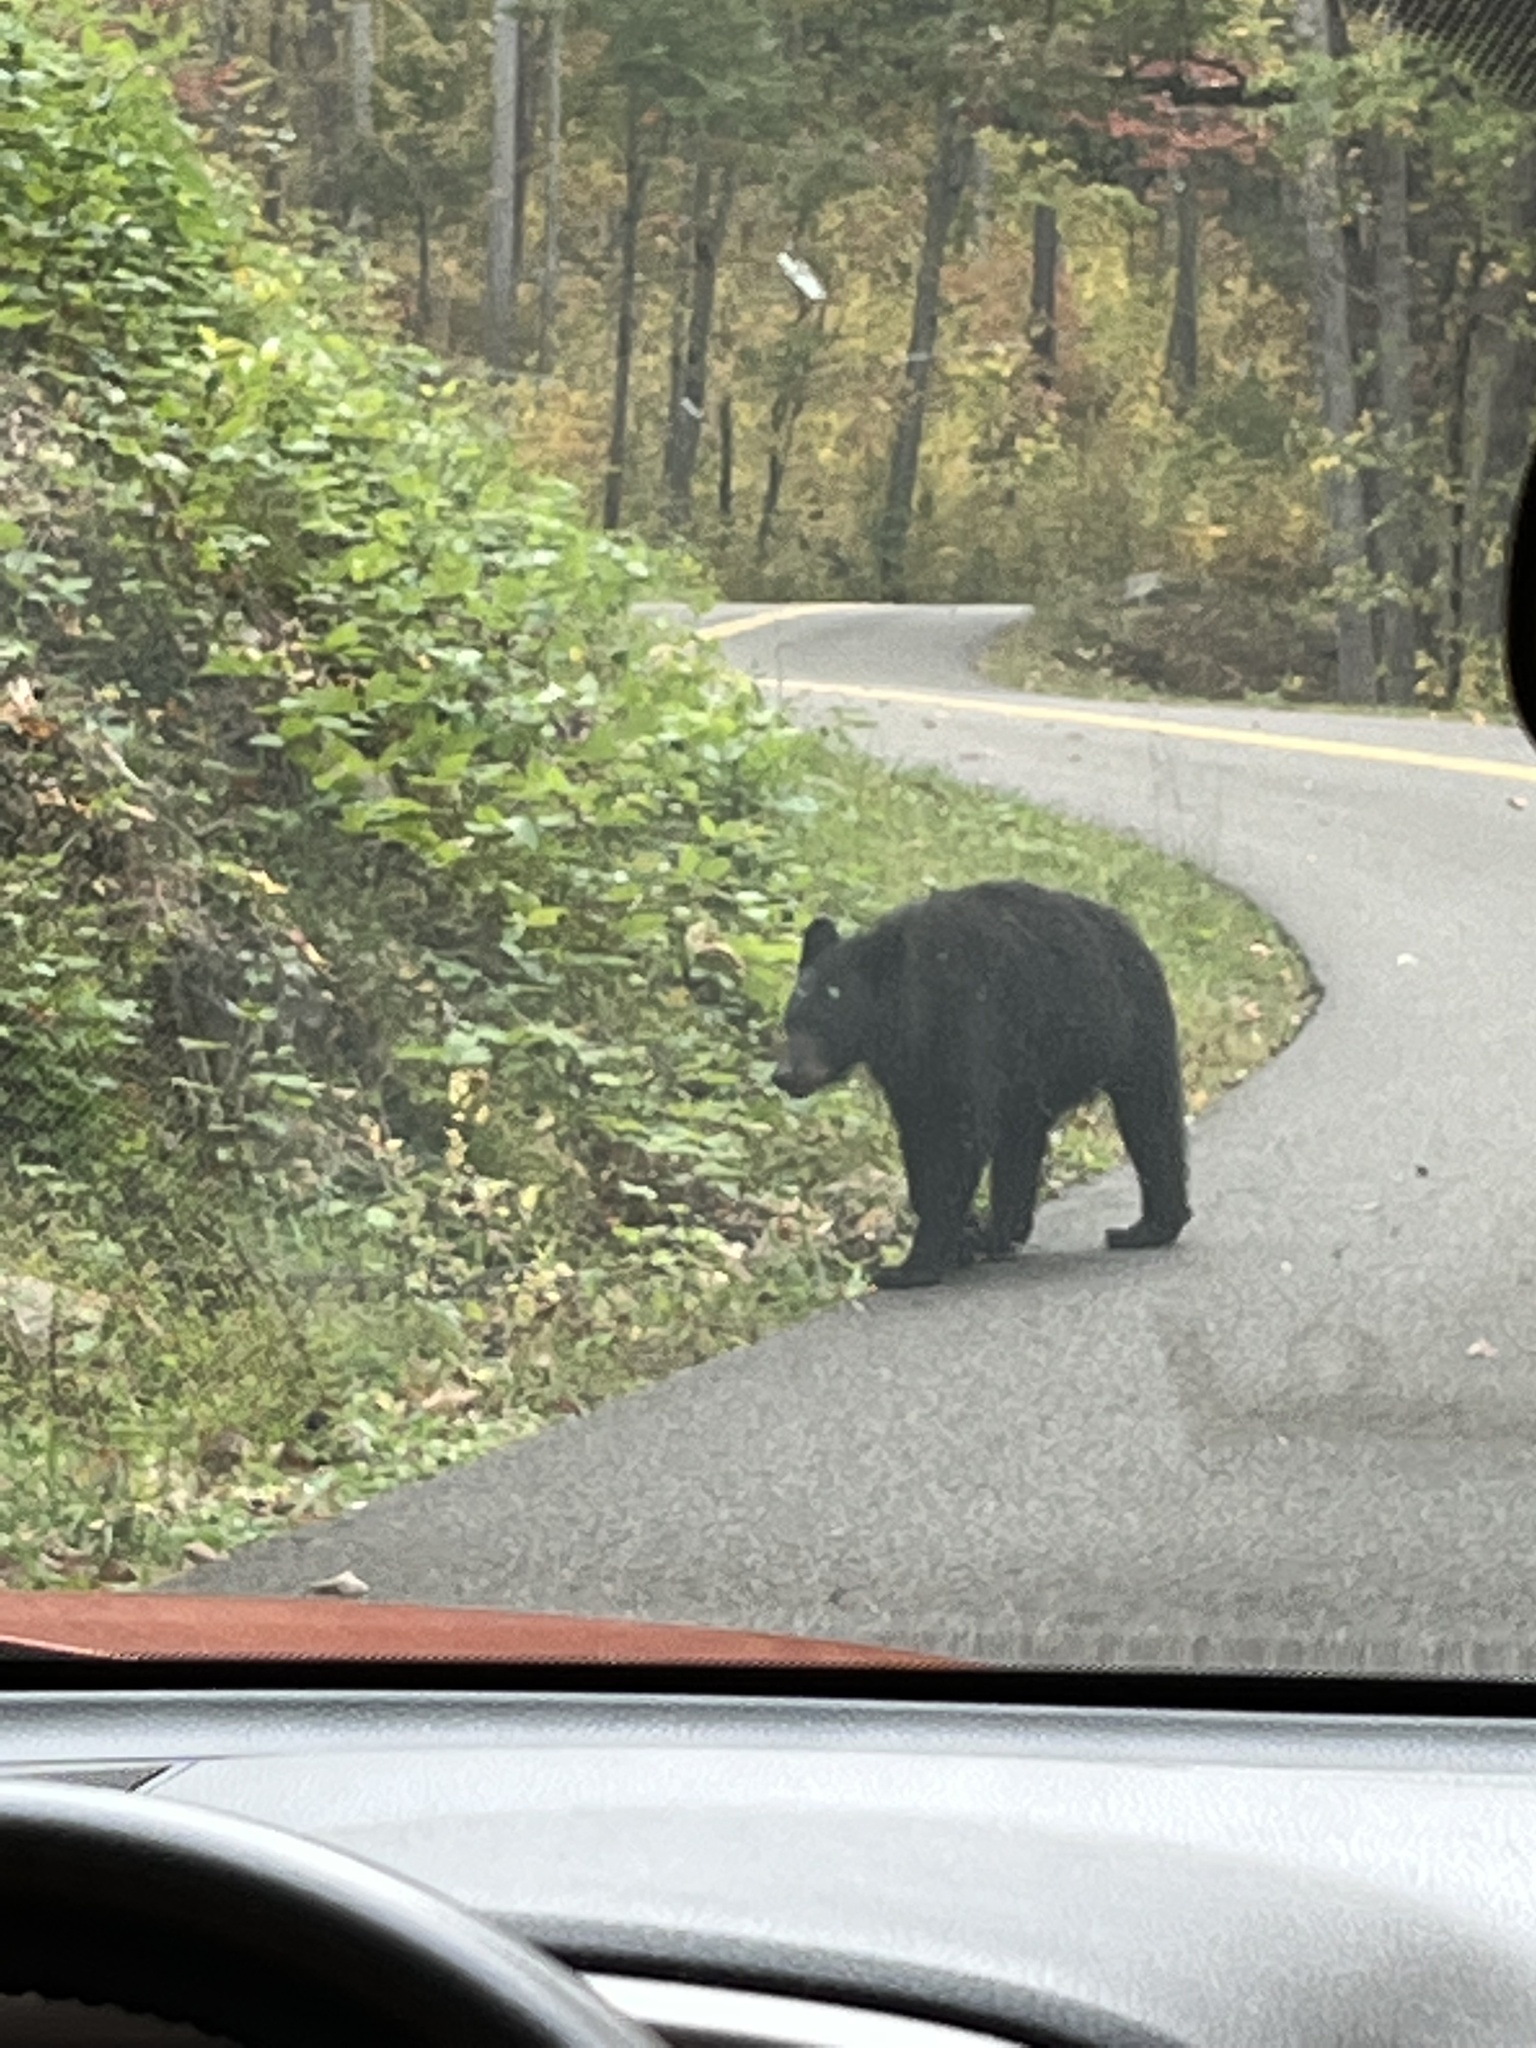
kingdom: Animalia
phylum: Chordata
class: Mammalia
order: Carnivora
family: Ursidae
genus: Ursus
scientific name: Ursus americanus
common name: American black bear
